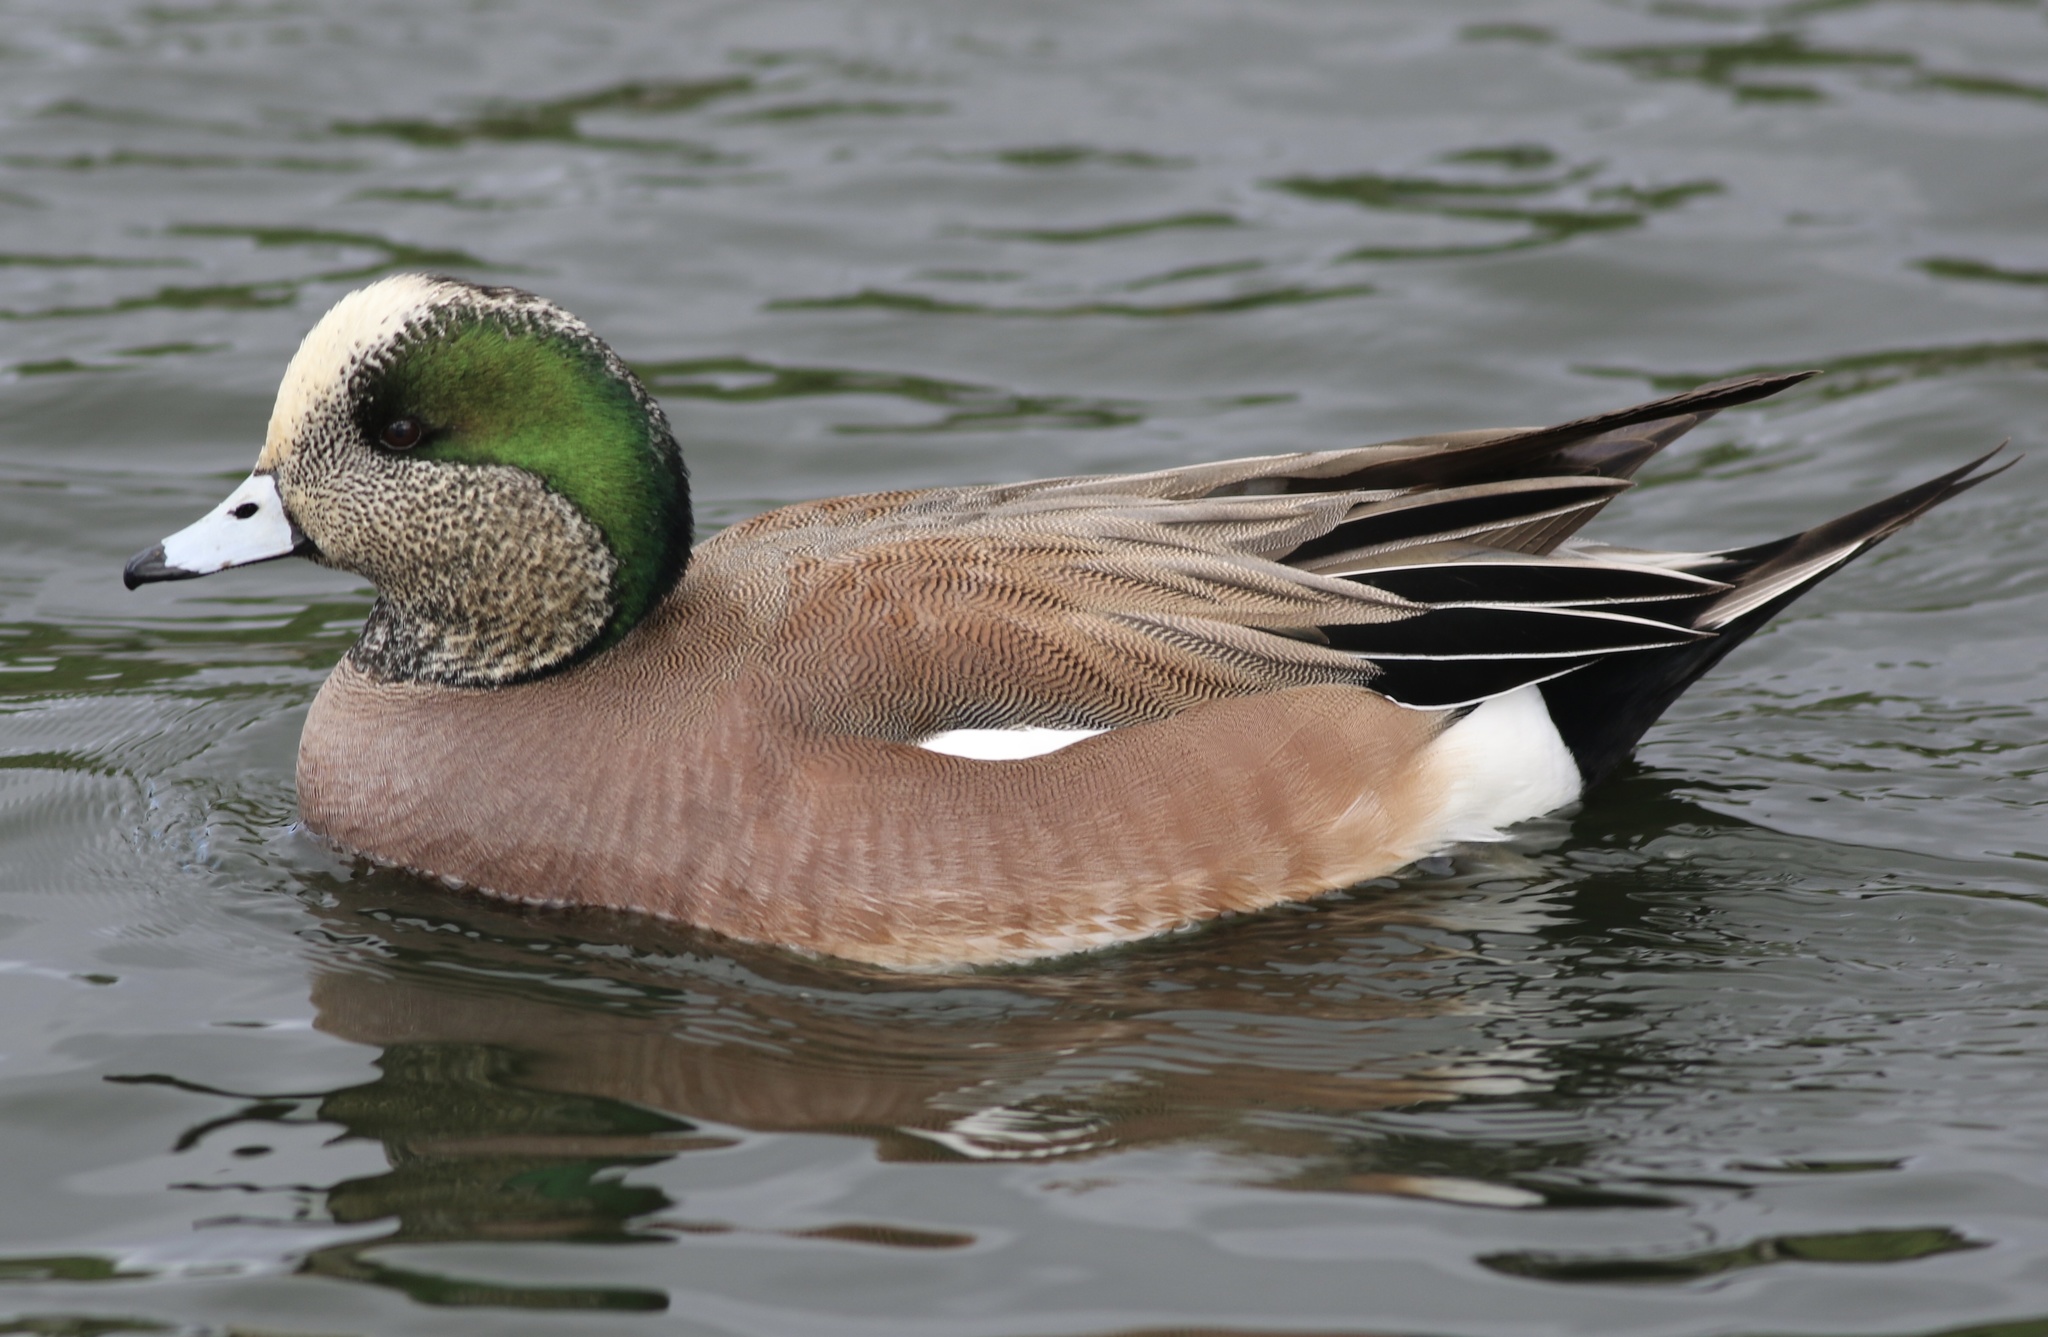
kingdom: Animalia
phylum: Chordata
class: Aves
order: Anseriformes
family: Anatidae
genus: Mareca
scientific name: Mareca americana
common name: American wigeon
